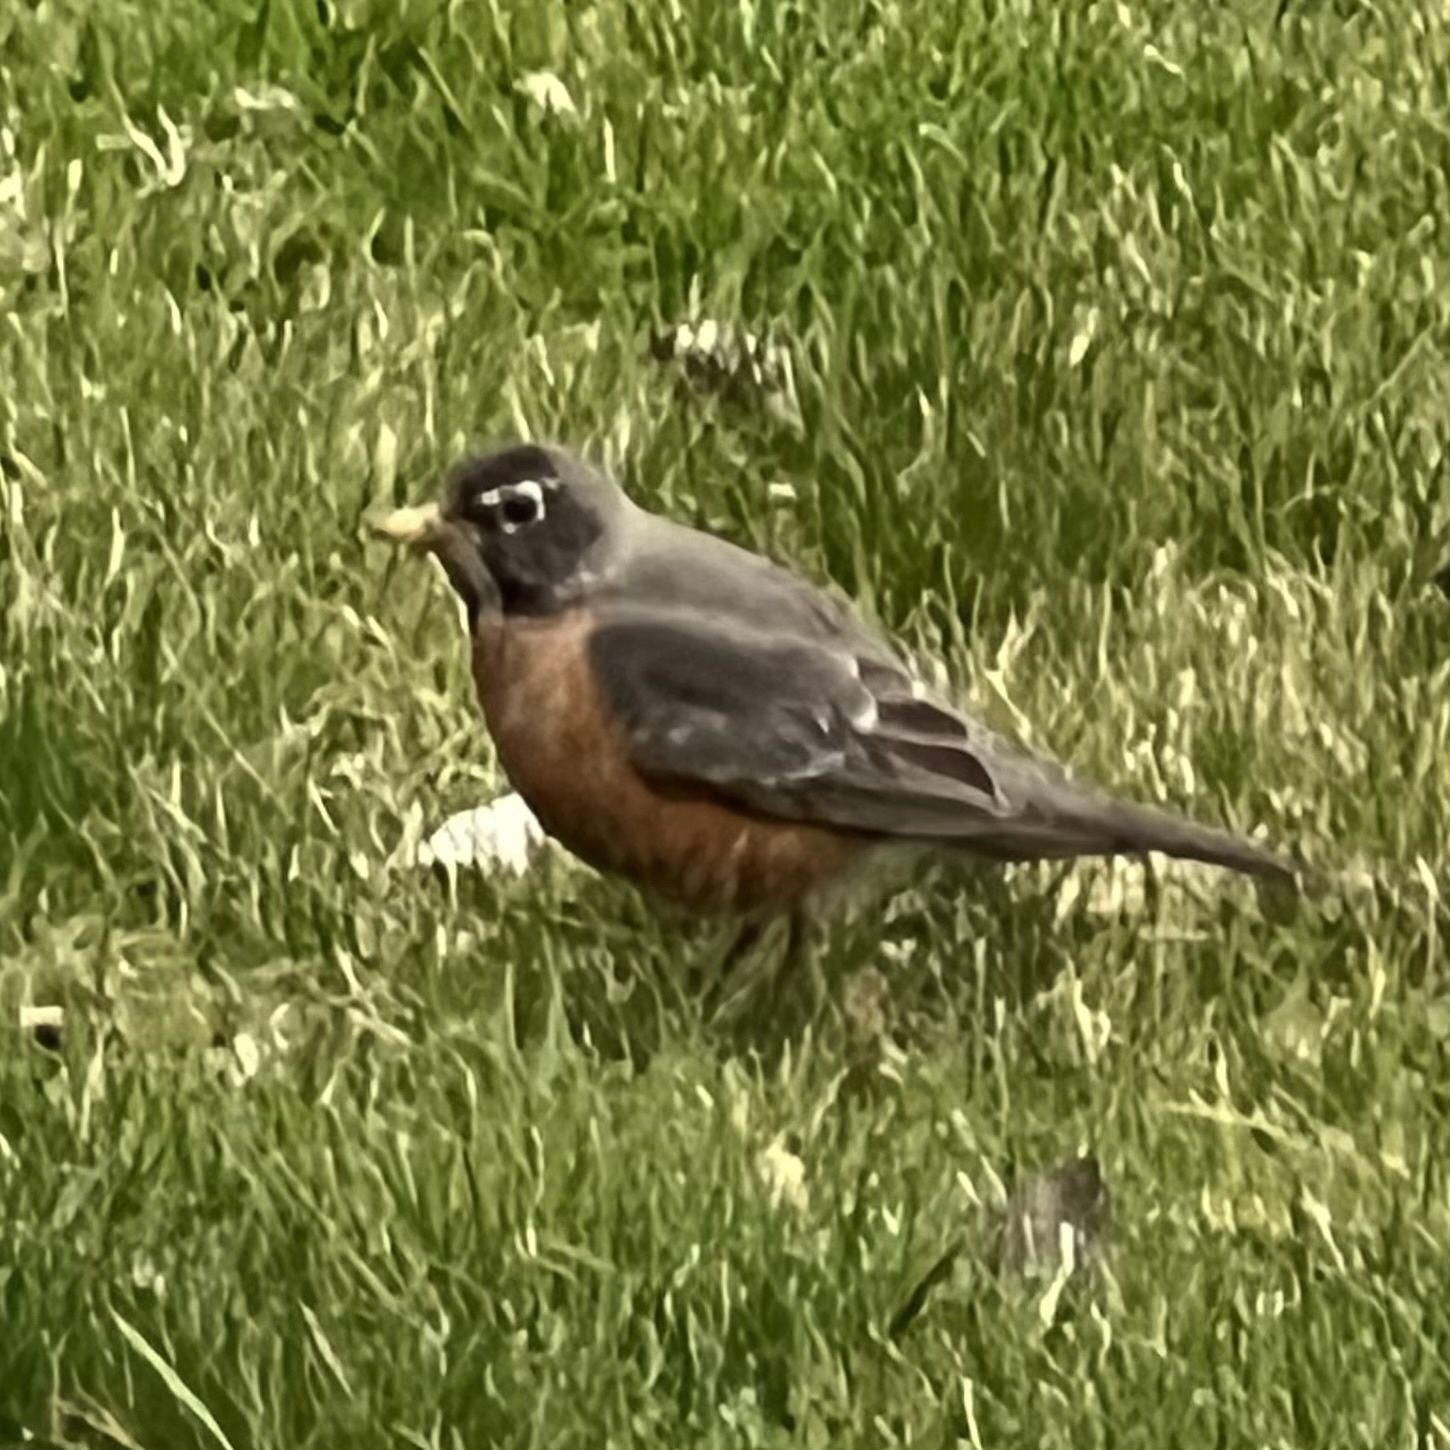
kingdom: Animalia
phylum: Chordata
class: Aves
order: Passeriformes
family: Turdidae
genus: Turdus
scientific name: Turdus migratorius
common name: American robin
